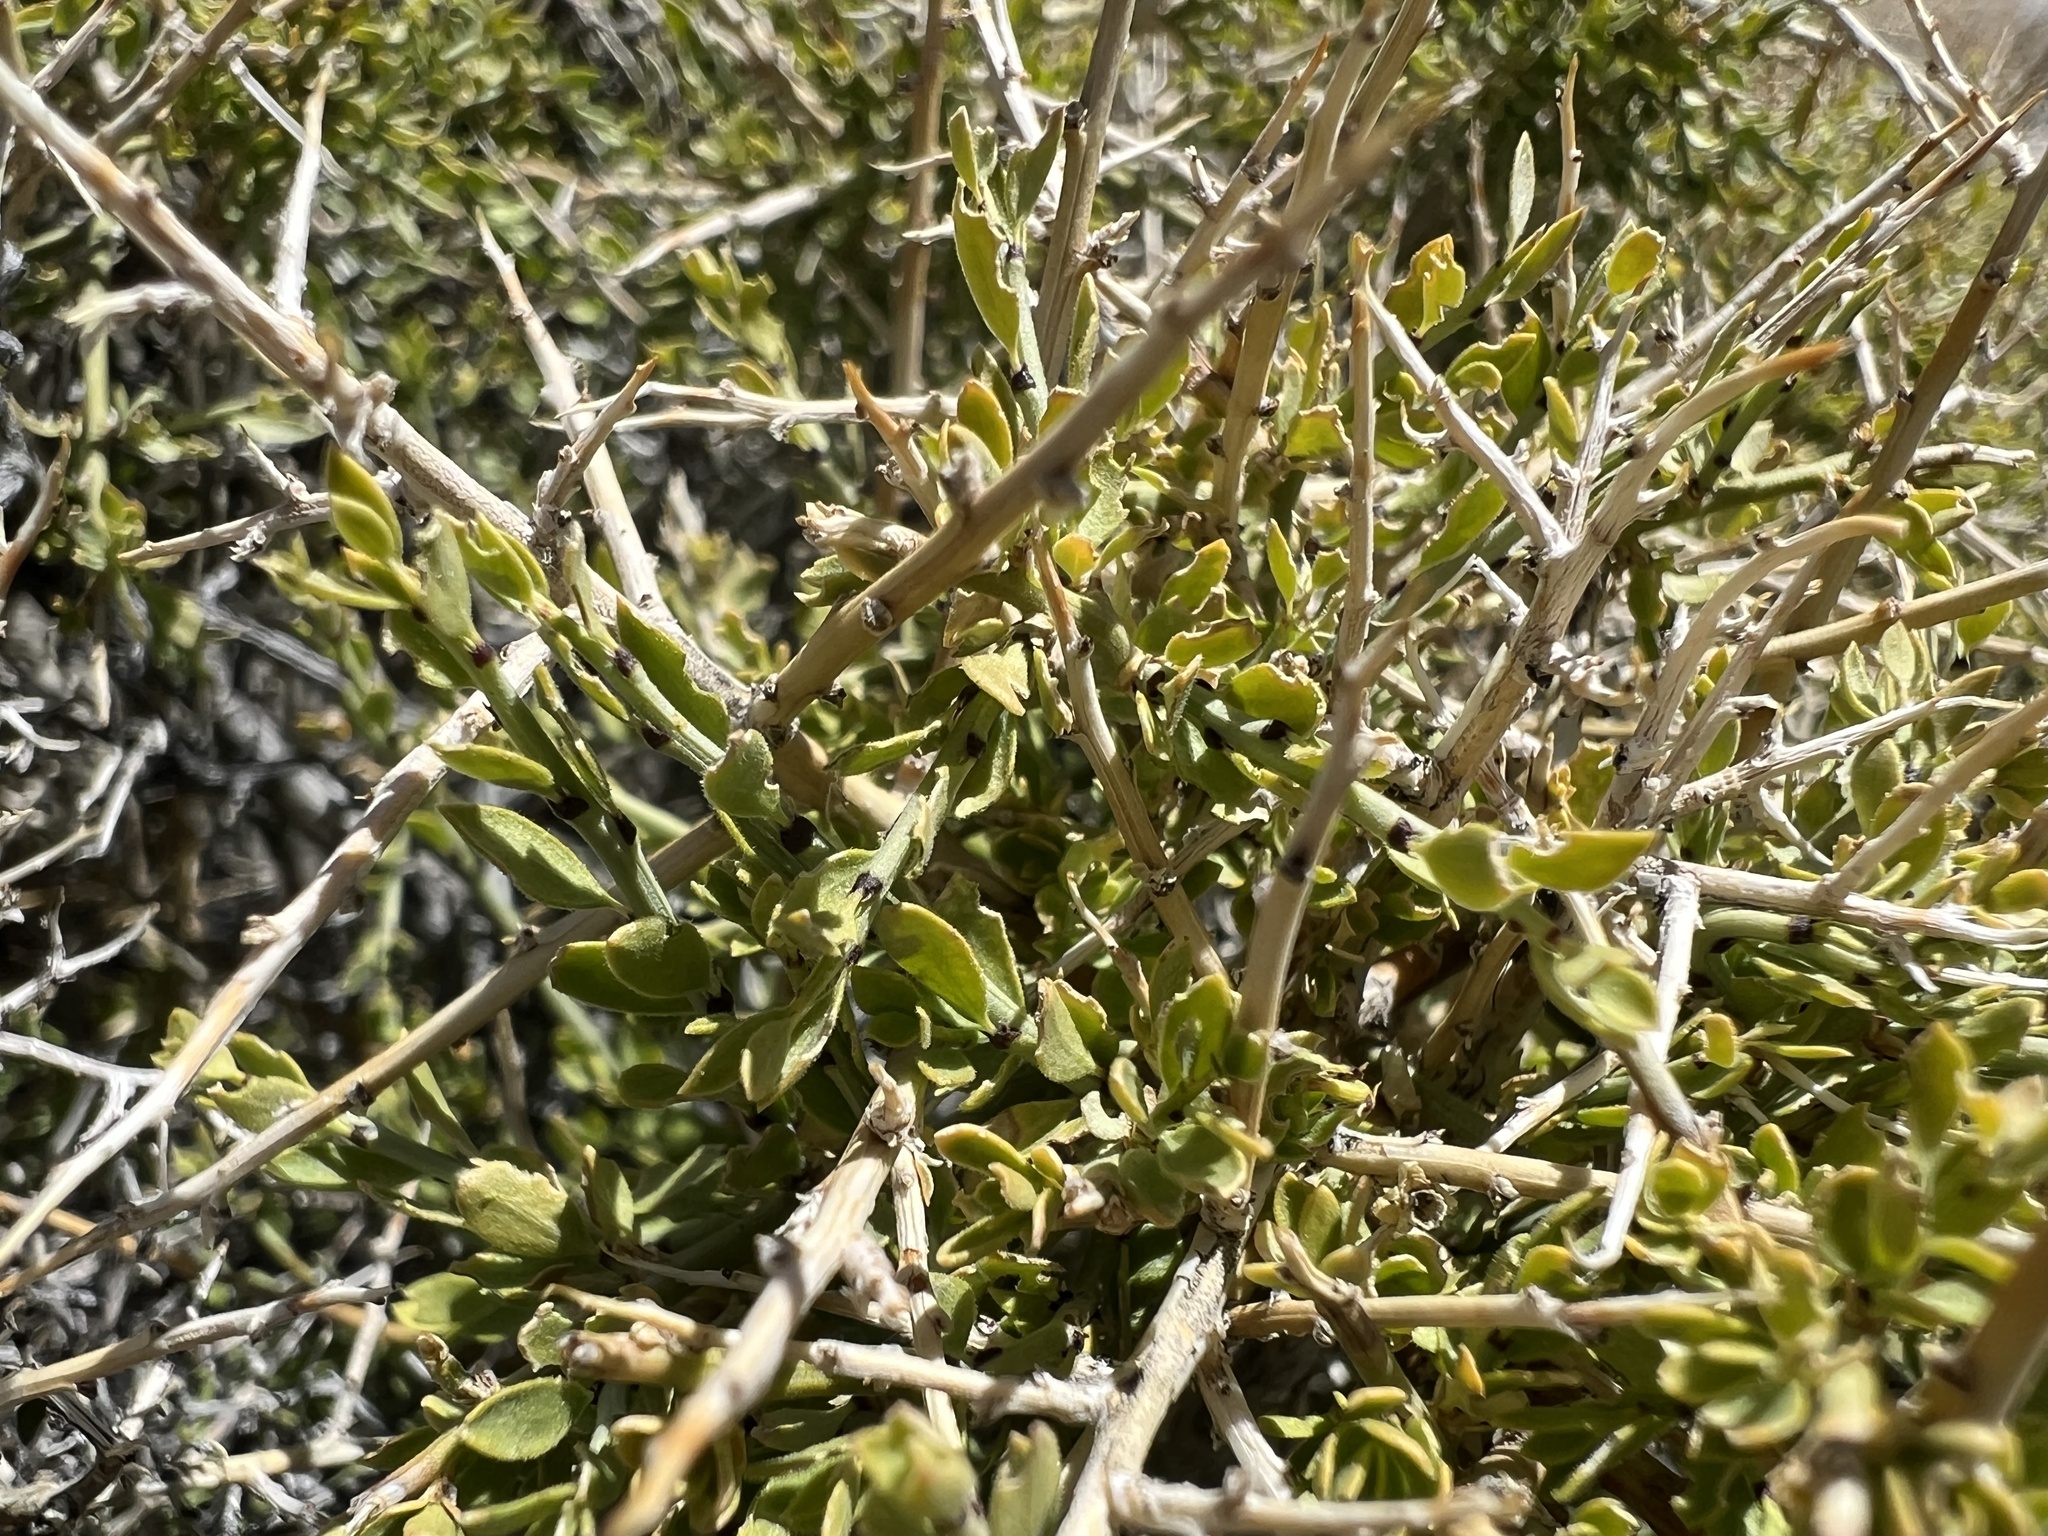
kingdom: Plantae
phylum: Tracheophyta
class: Magnoliopsida
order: Crossosomatales
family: Crossosomataceae
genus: Glossopetalon
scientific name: Glossopetalon spinescens
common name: Spring greasebush
